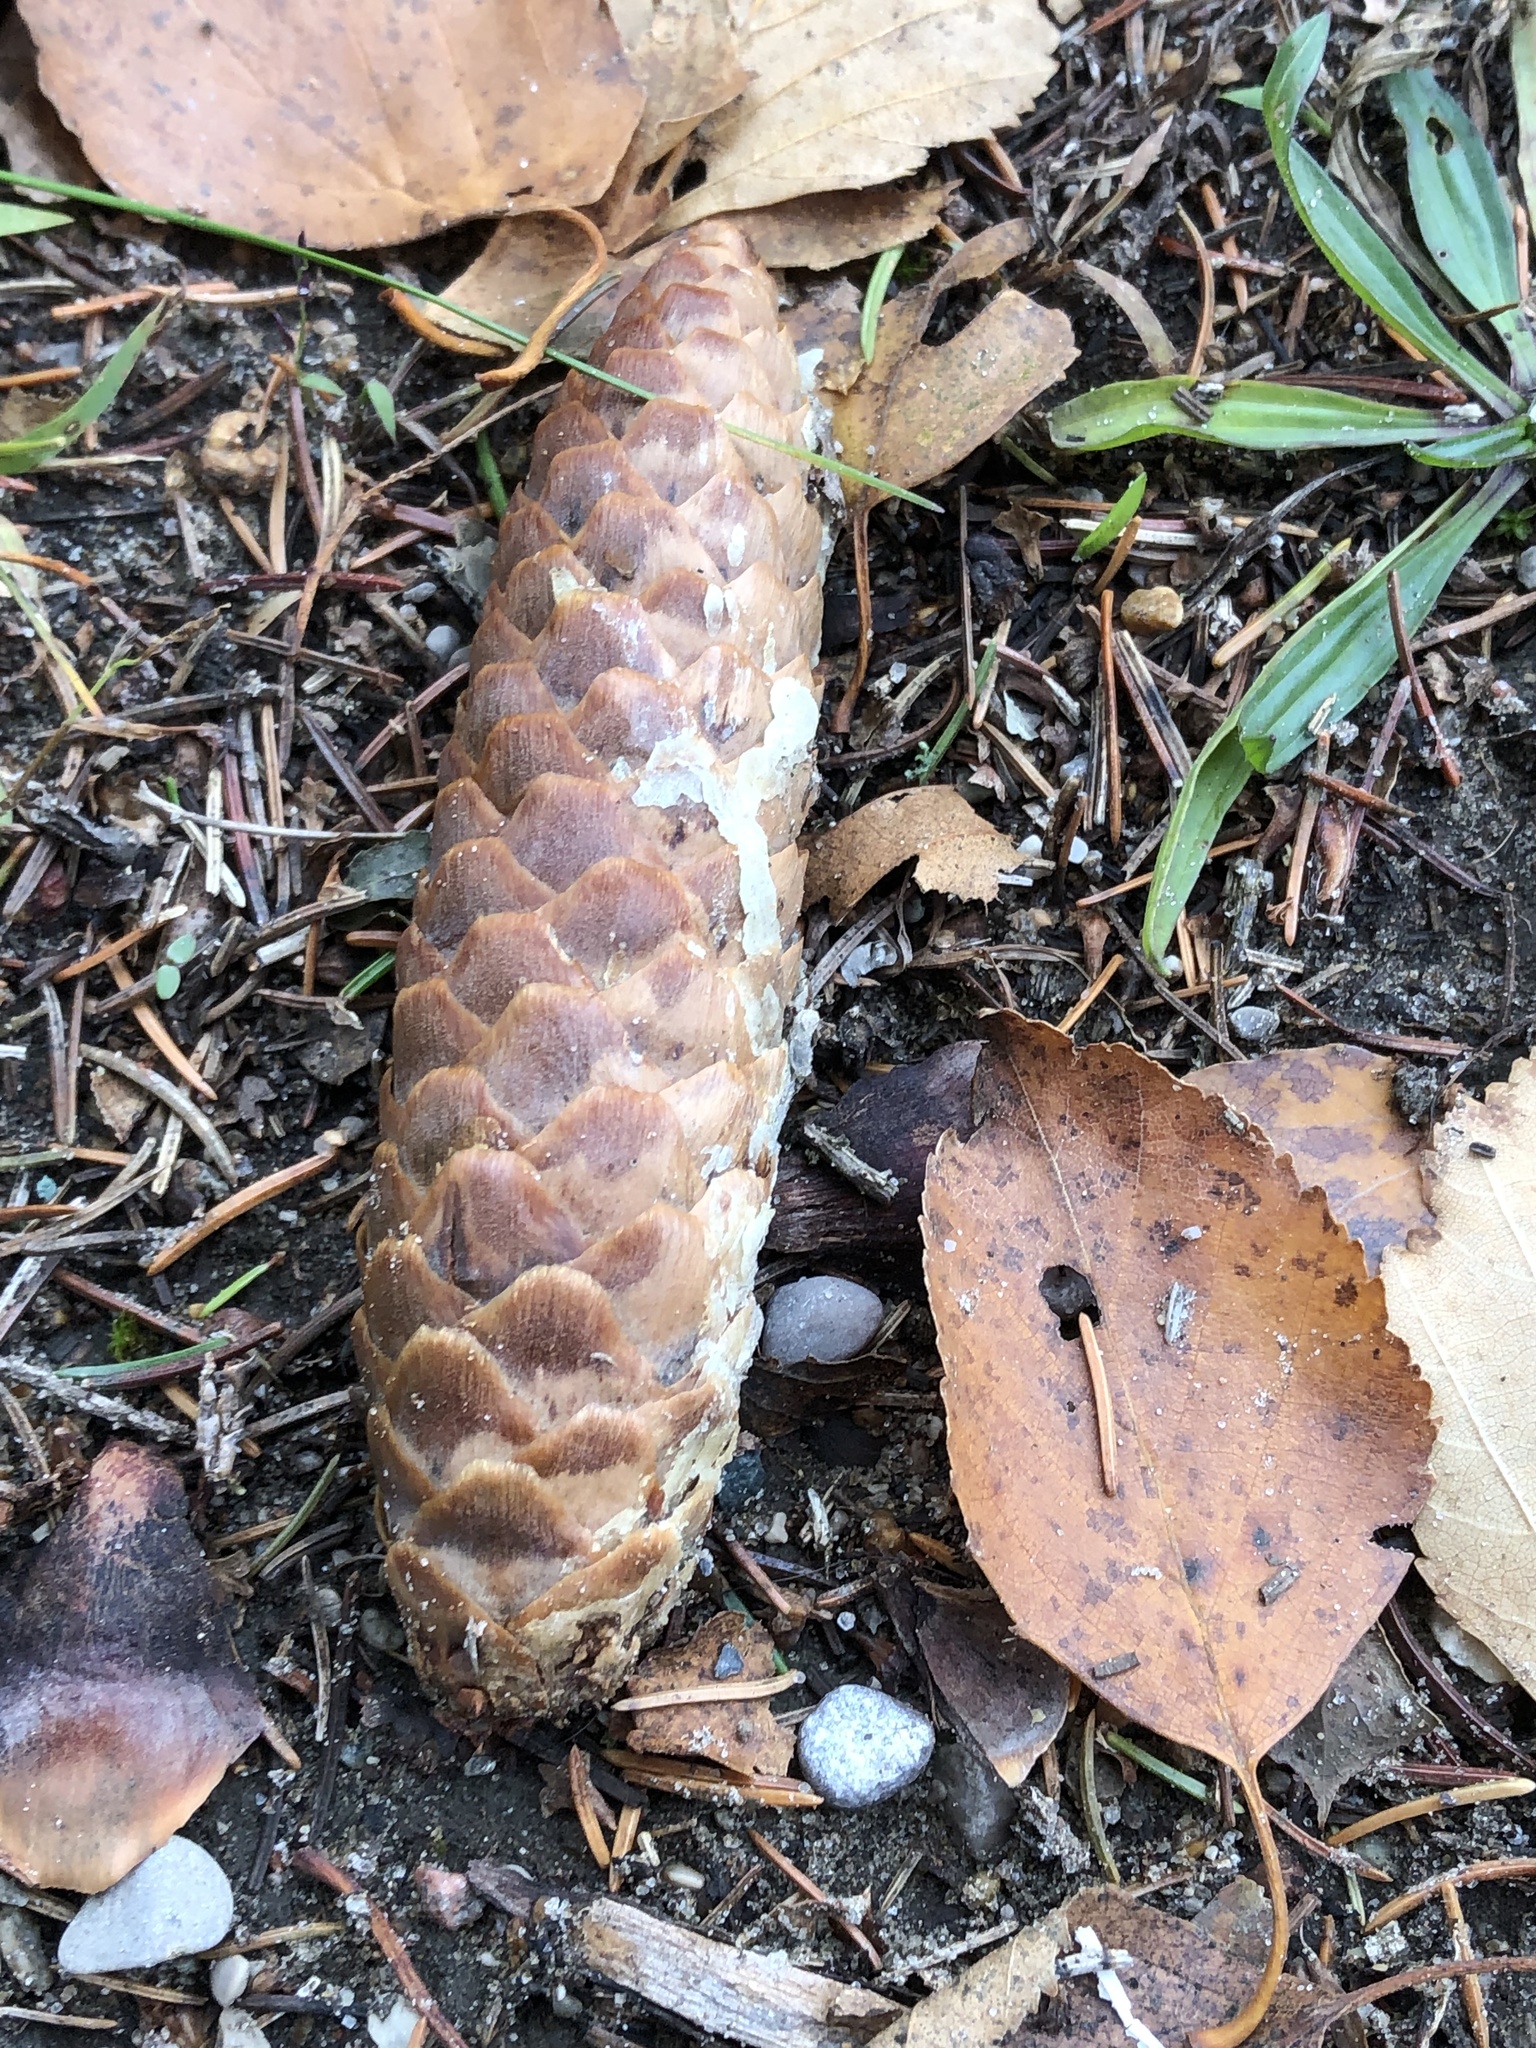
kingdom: Plantae
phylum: Tracheophyta
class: Pinopsida
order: Pinales
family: Pinaceae
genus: Picea
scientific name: Picea abies
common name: Norway spruce
